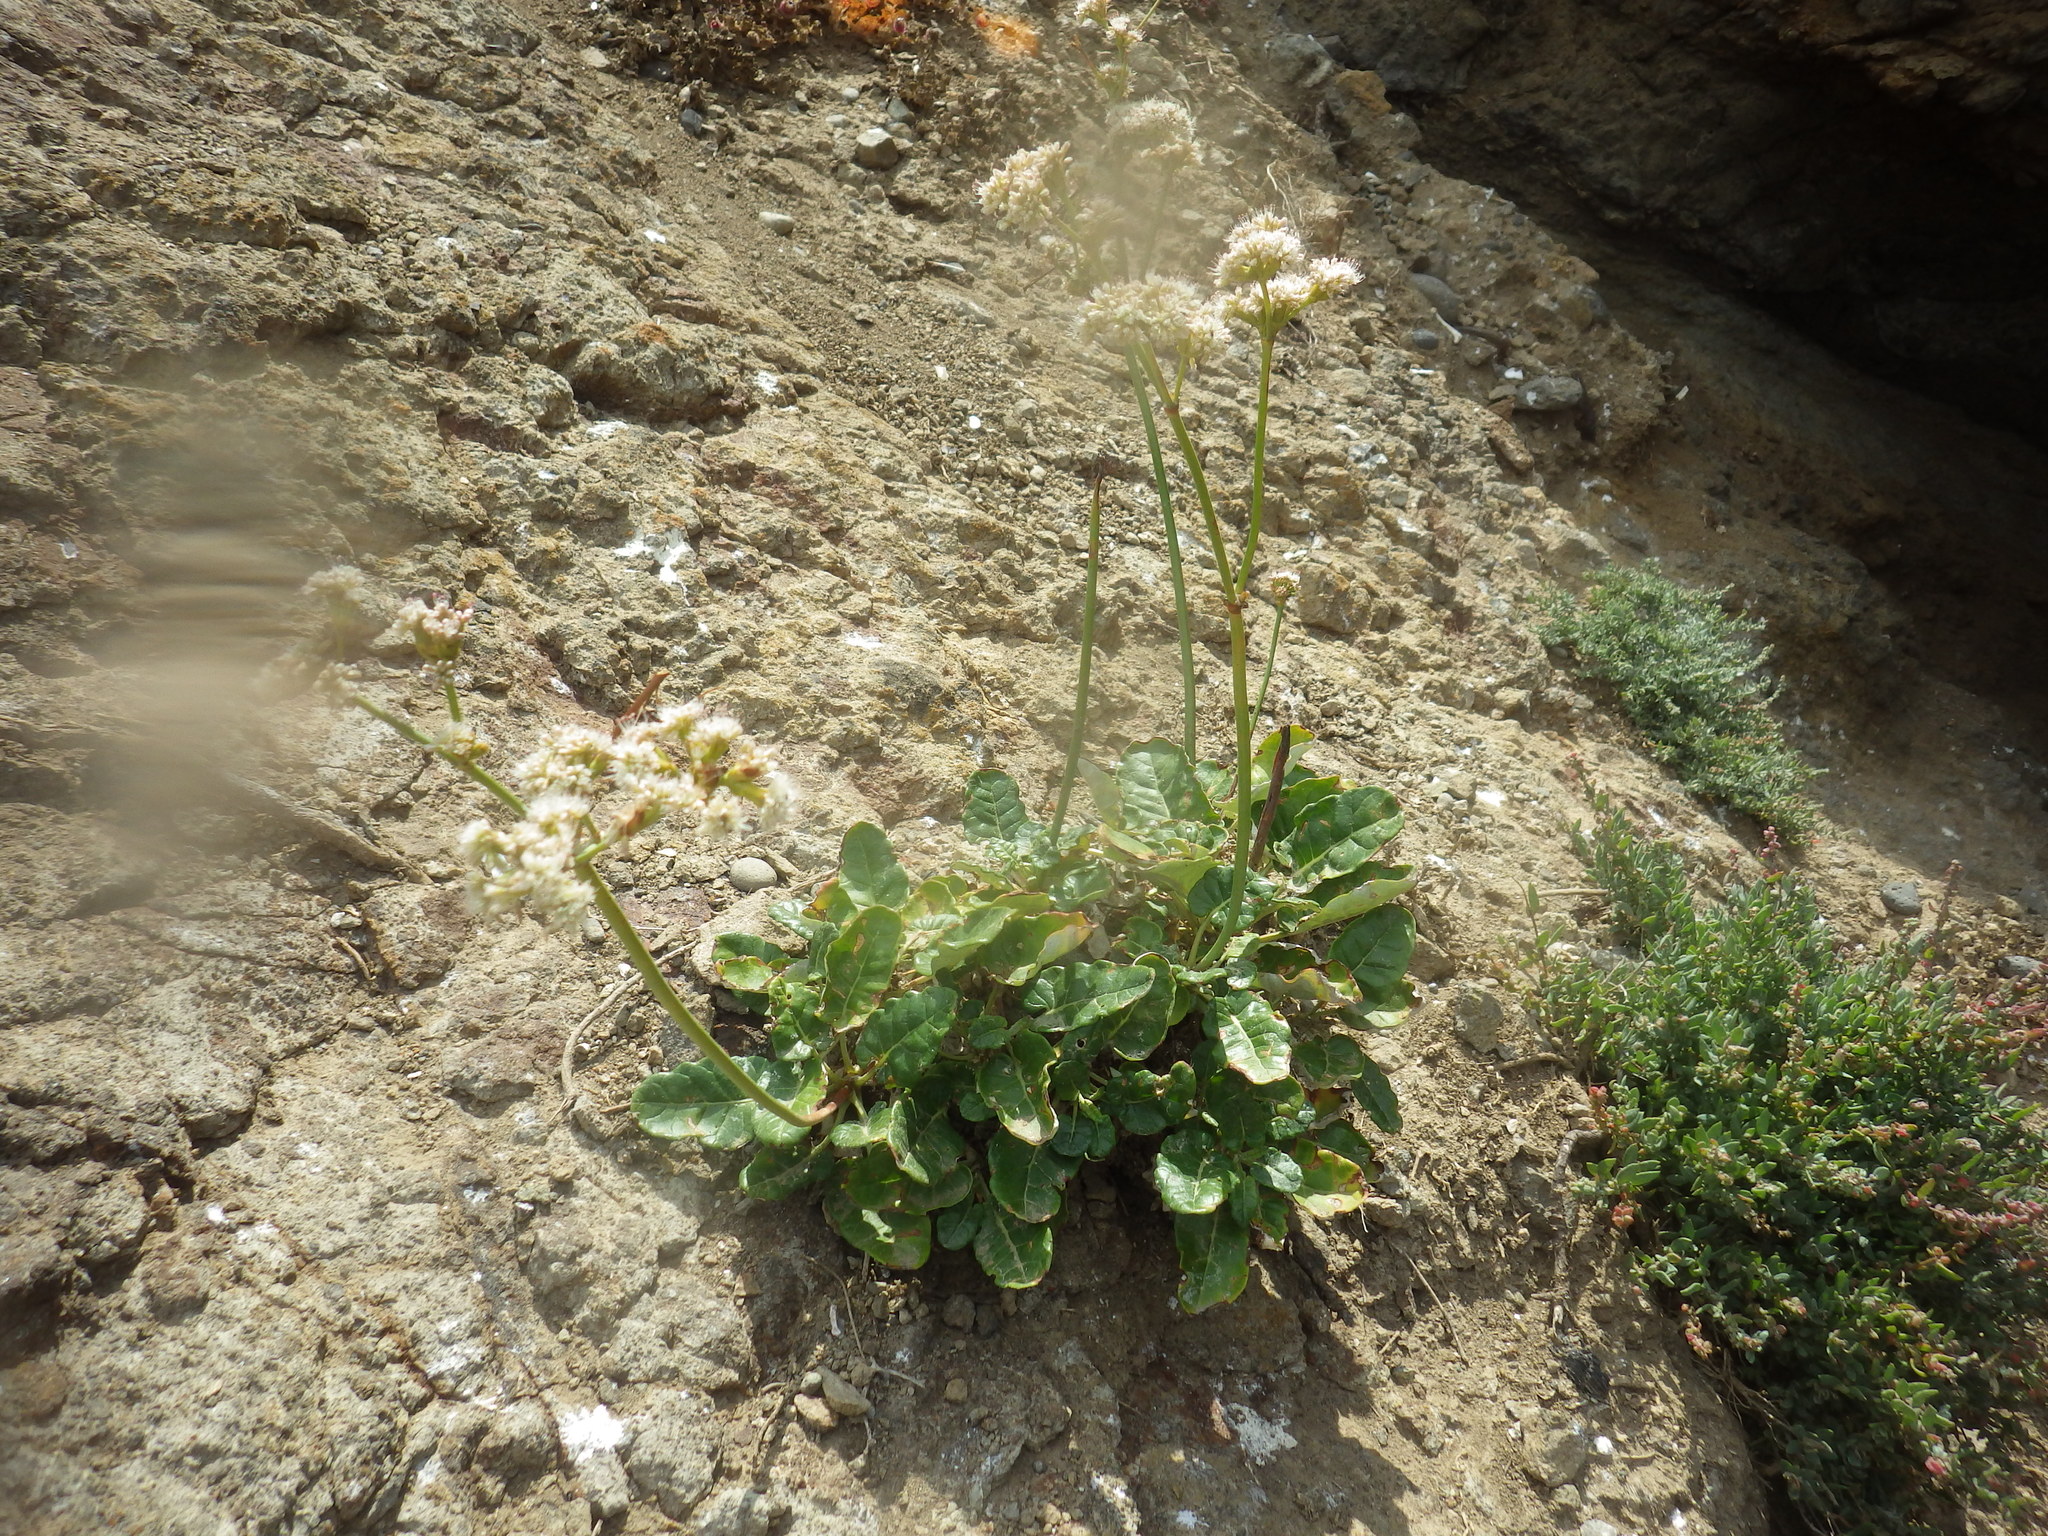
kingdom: Plantae
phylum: Tracheophyta
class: Magnoliopsida
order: Caryophyllales
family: Polygonaceae
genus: Eriogonum
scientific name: Eriogonum grande
